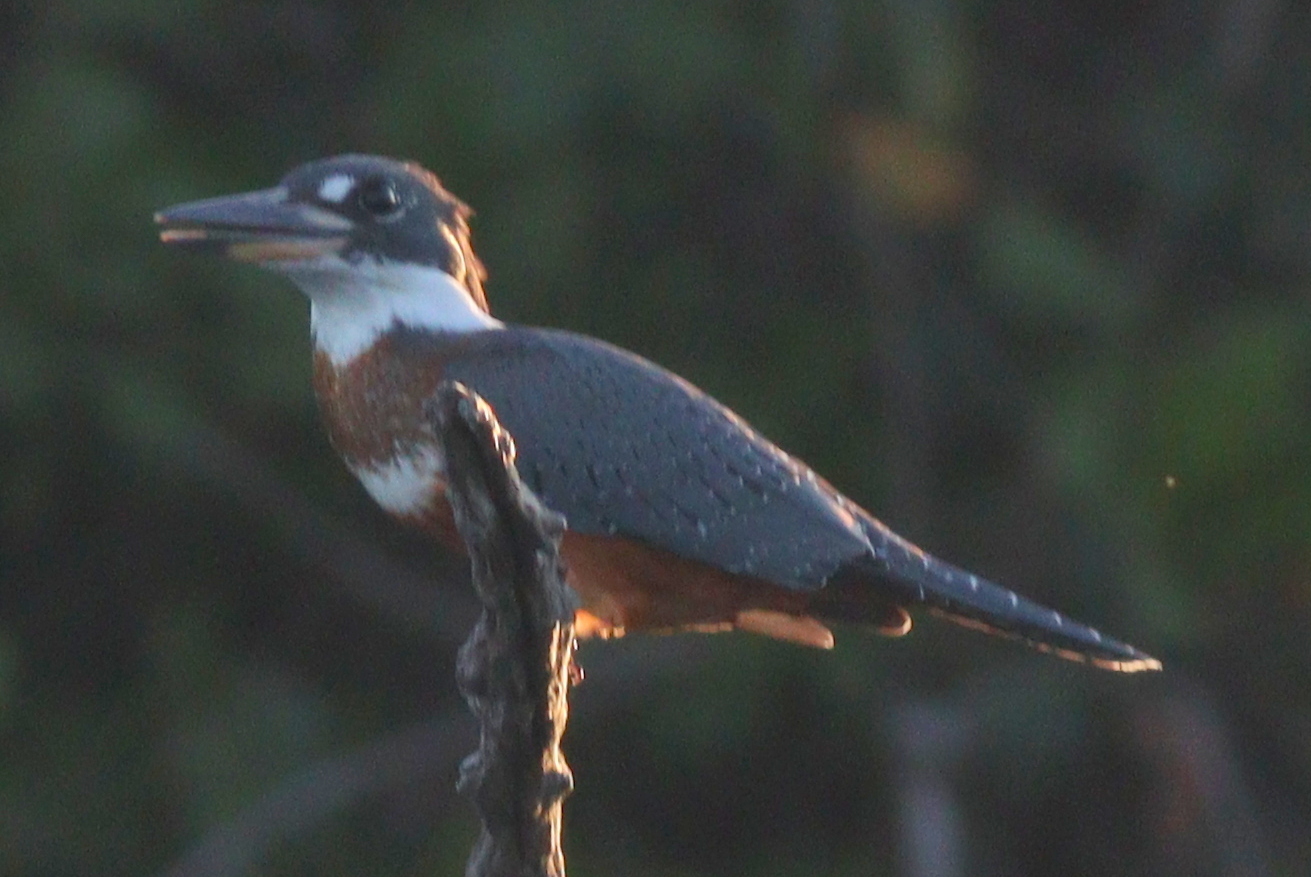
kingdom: Animalia
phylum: Chordata
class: Aves
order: Coraciiformes
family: Alcedinidae
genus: Megaceryle
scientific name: Megaceryle torquata
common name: Ringed kingfisher
